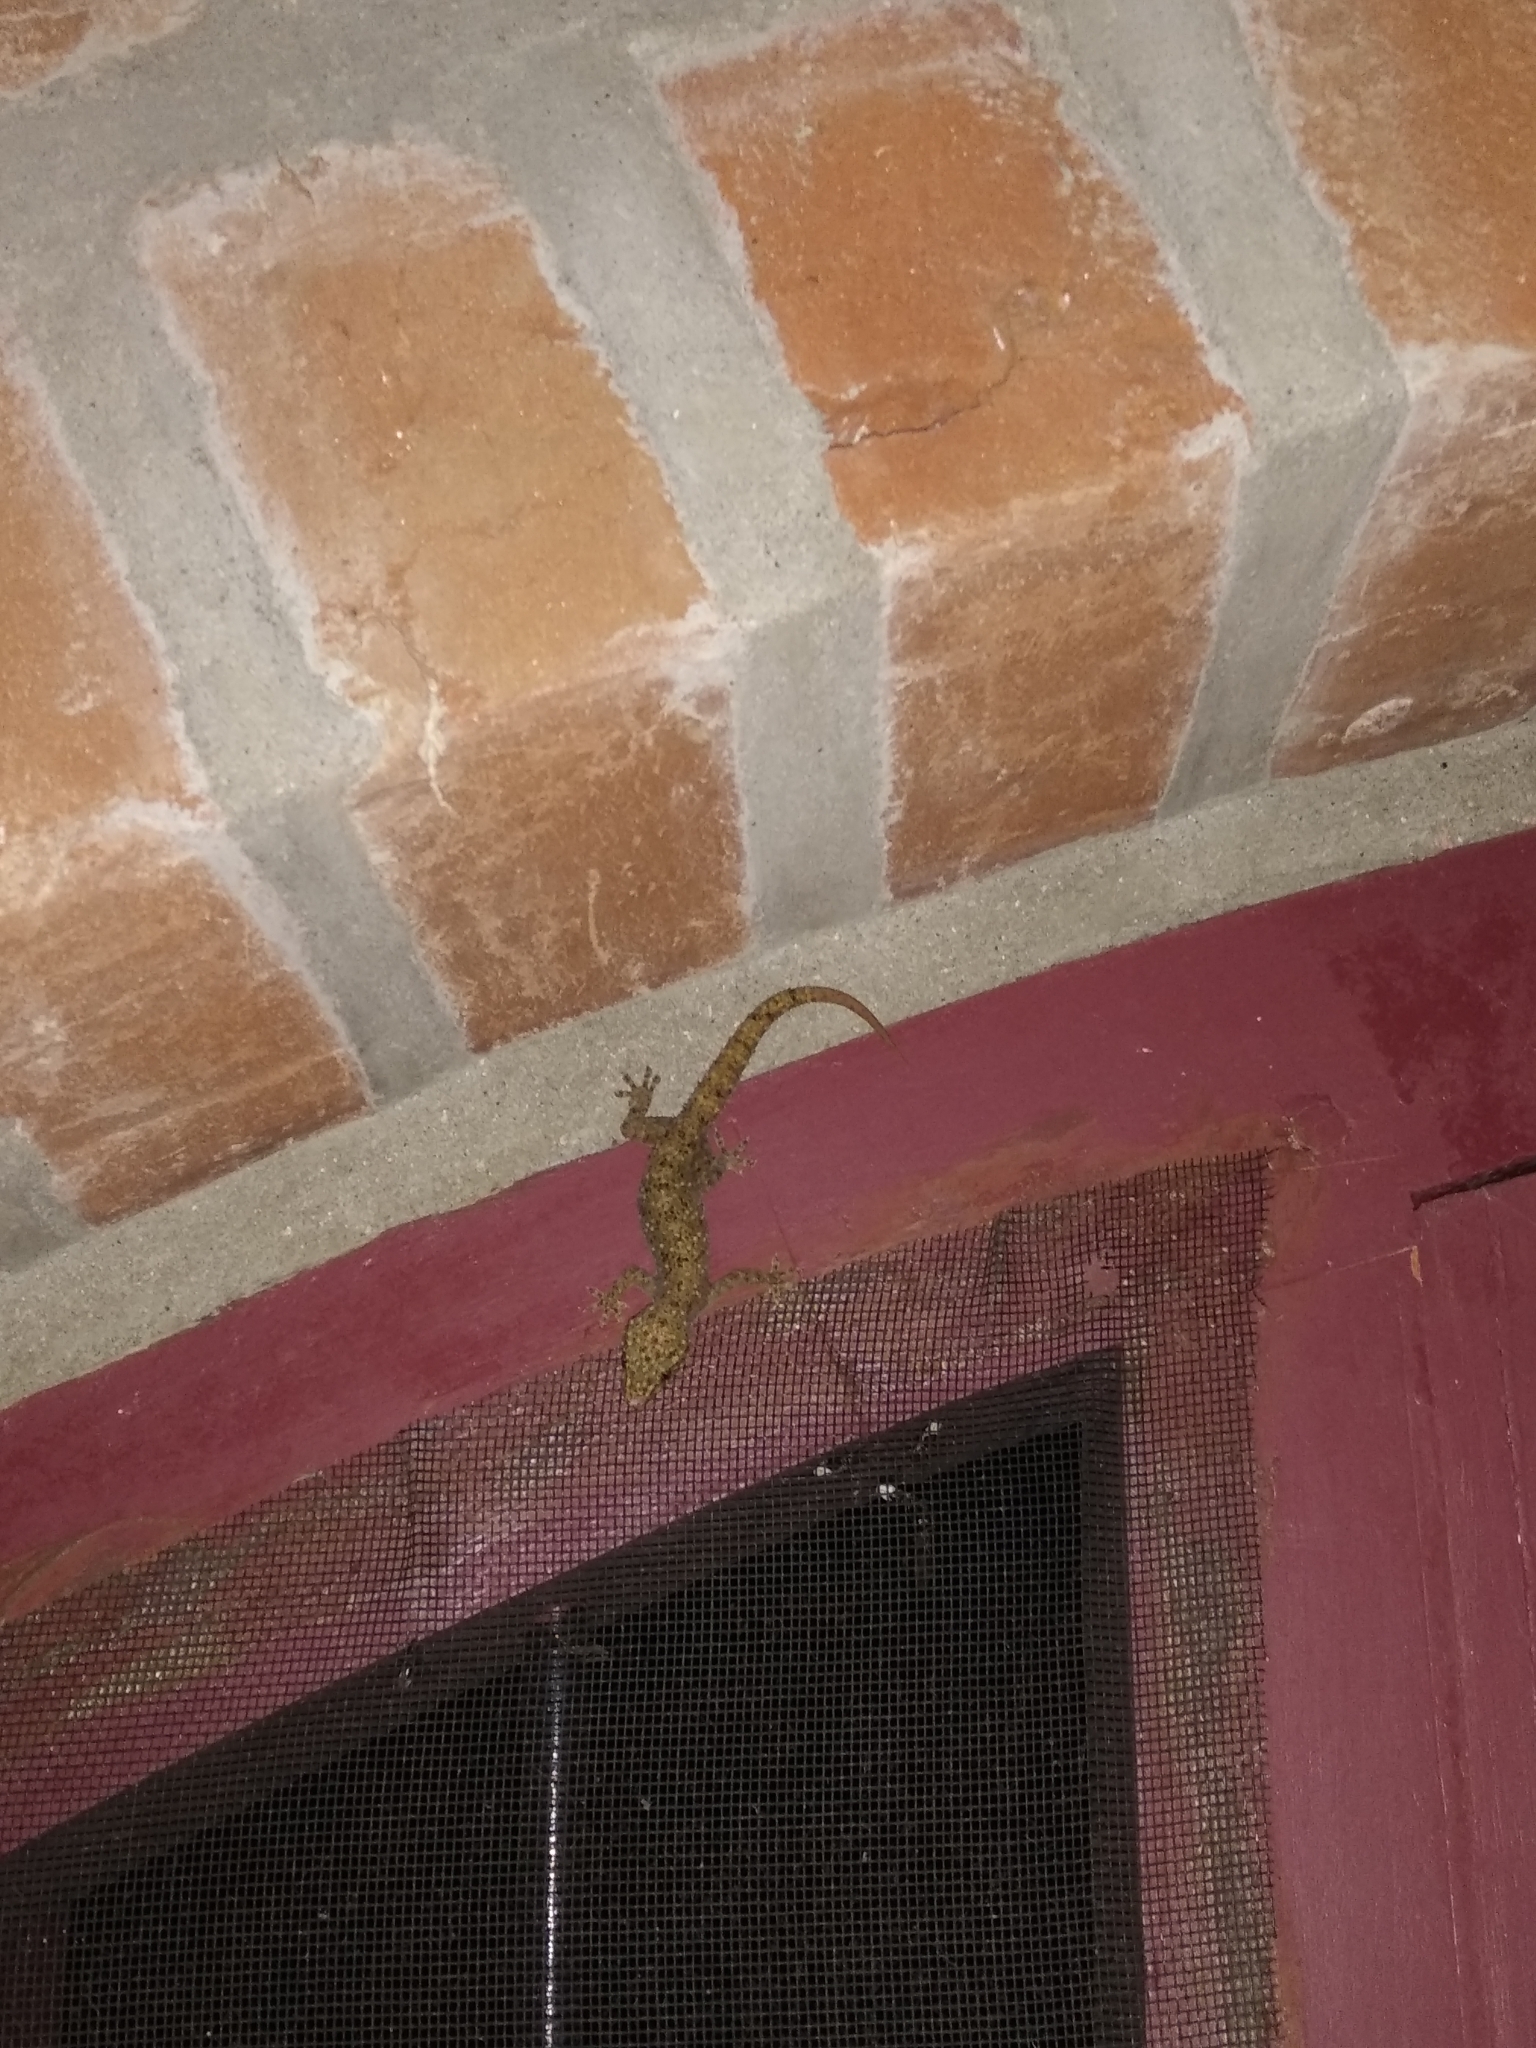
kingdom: Animalia
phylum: Chordata
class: Squamata
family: Gekkonidae
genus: Hemidactylus
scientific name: Hemidactylus parvimaculatus
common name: Spotted house gecko
